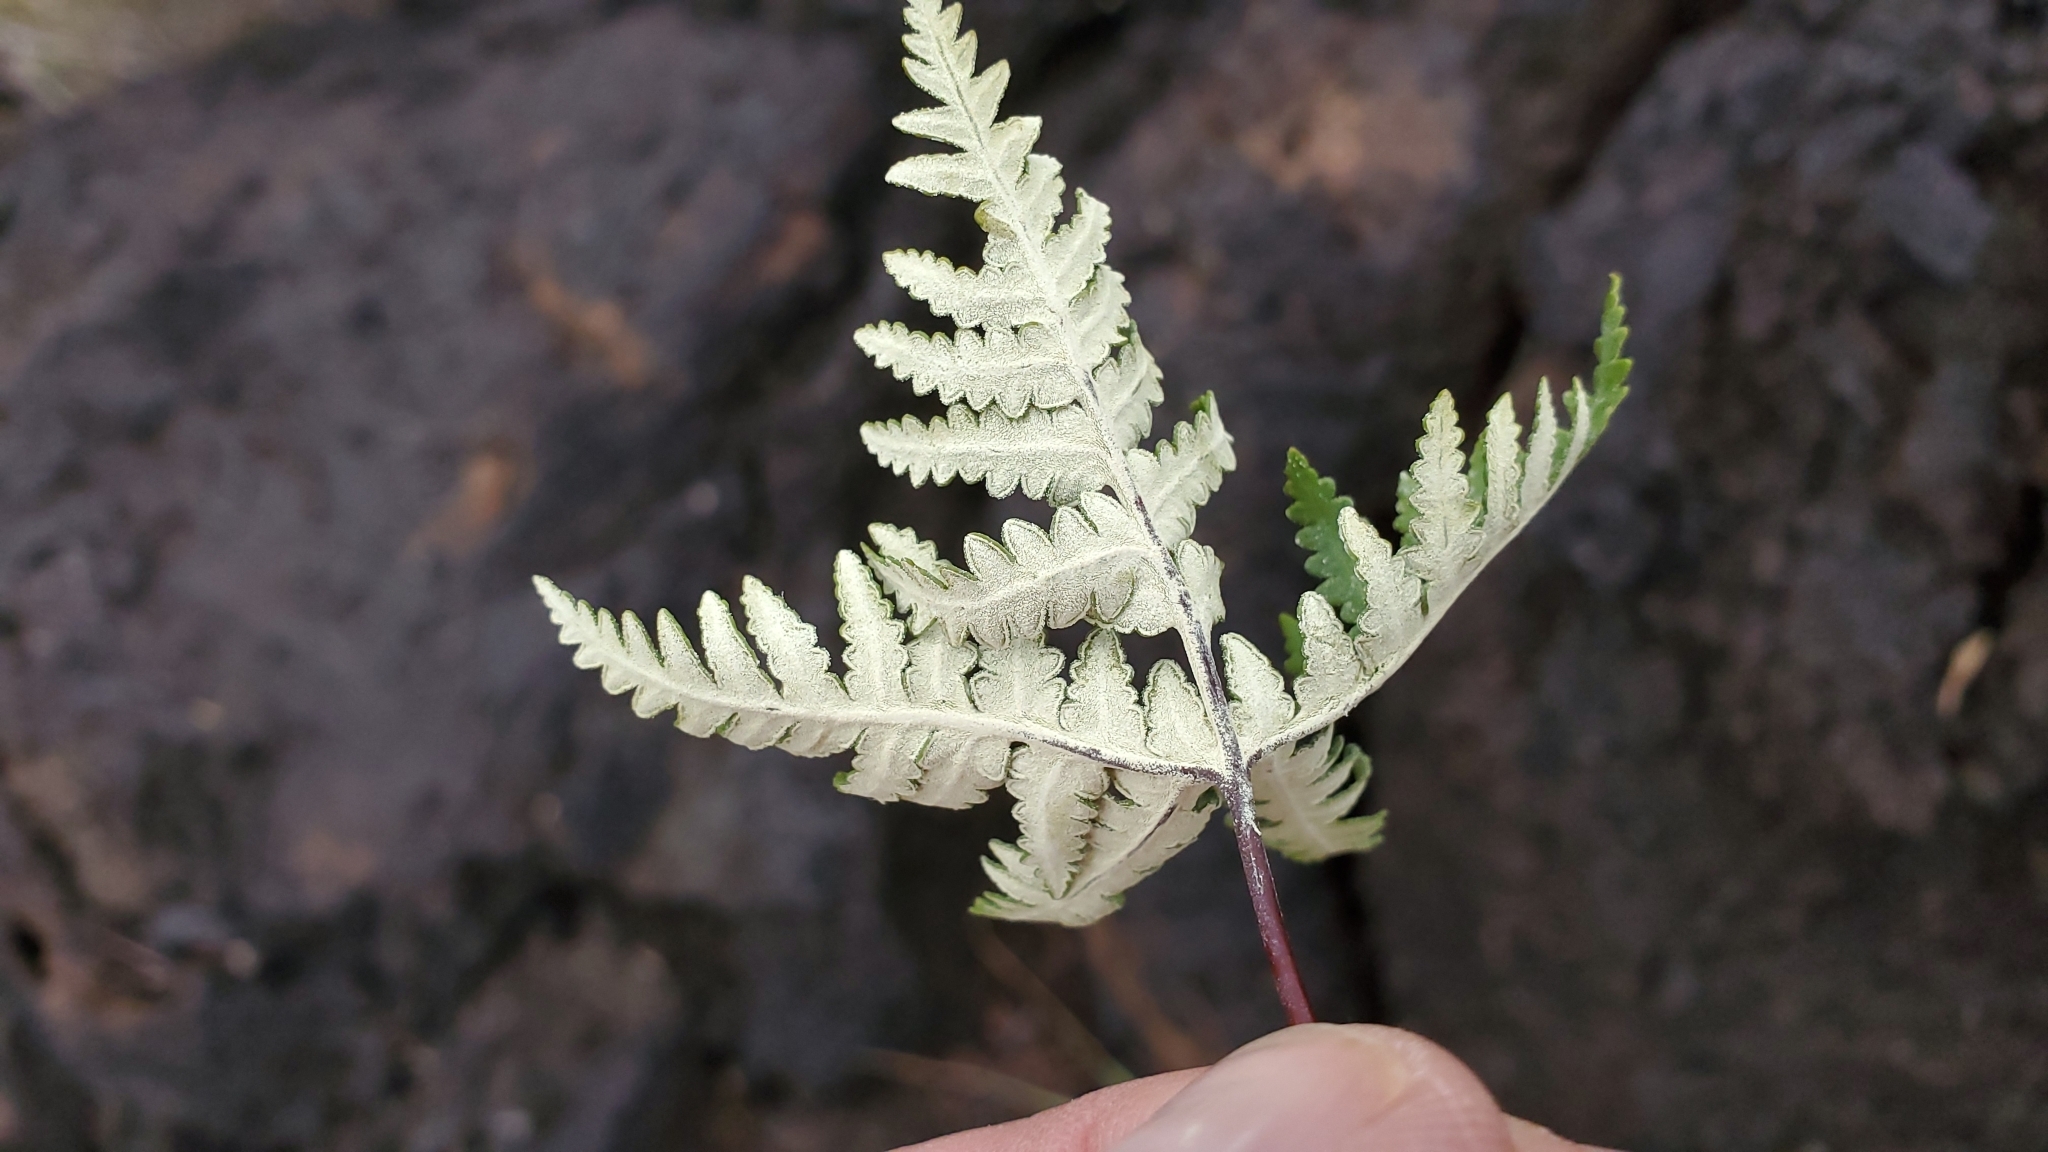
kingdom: Plantae
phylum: Tracheophyta
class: Polypodiopsida
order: Polypodiales
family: Pteridaceae
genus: Notholaena
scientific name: Notholaena standleyi
